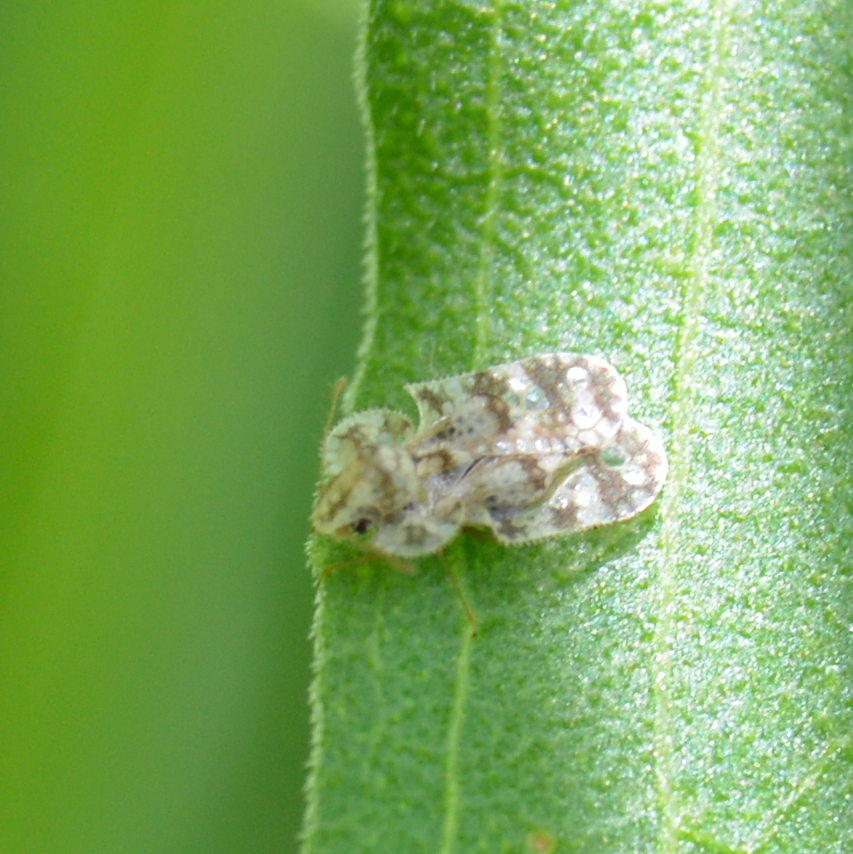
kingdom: Animalia
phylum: Arthropoda
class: Insecta
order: Hemiptera
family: Tingidae
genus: Corythucha
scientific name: Corythucha marmorata
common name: Chrysanthemum lace bug
